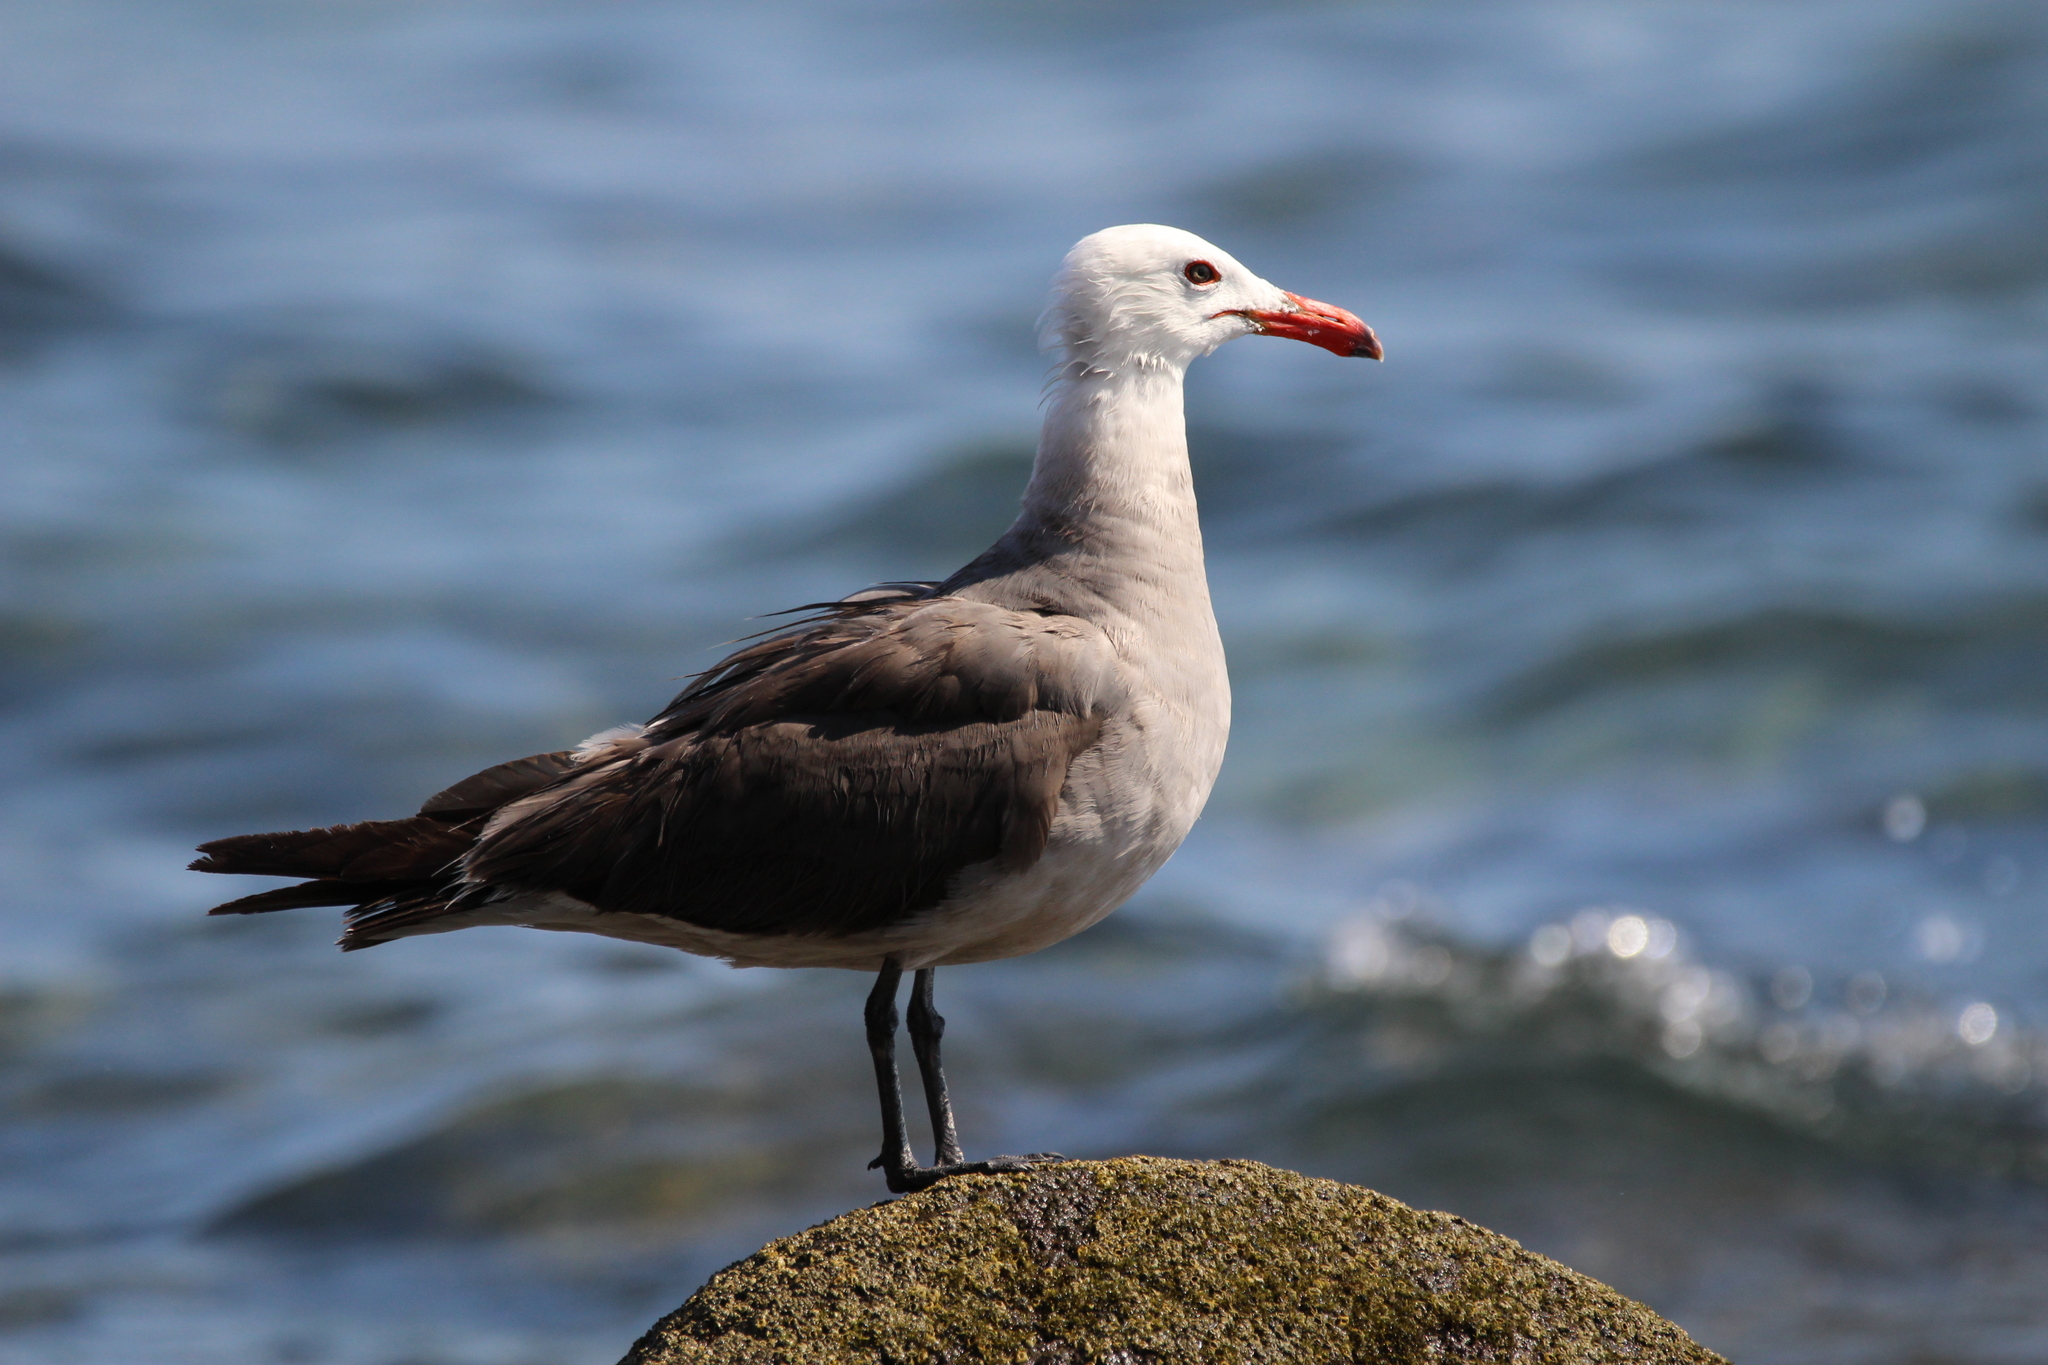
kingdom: Animalia
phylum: Chordata
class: Aves
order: Charadriiformes
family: Laridae
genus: Larus
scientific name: Larus heermanni
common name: Heermann's gull
